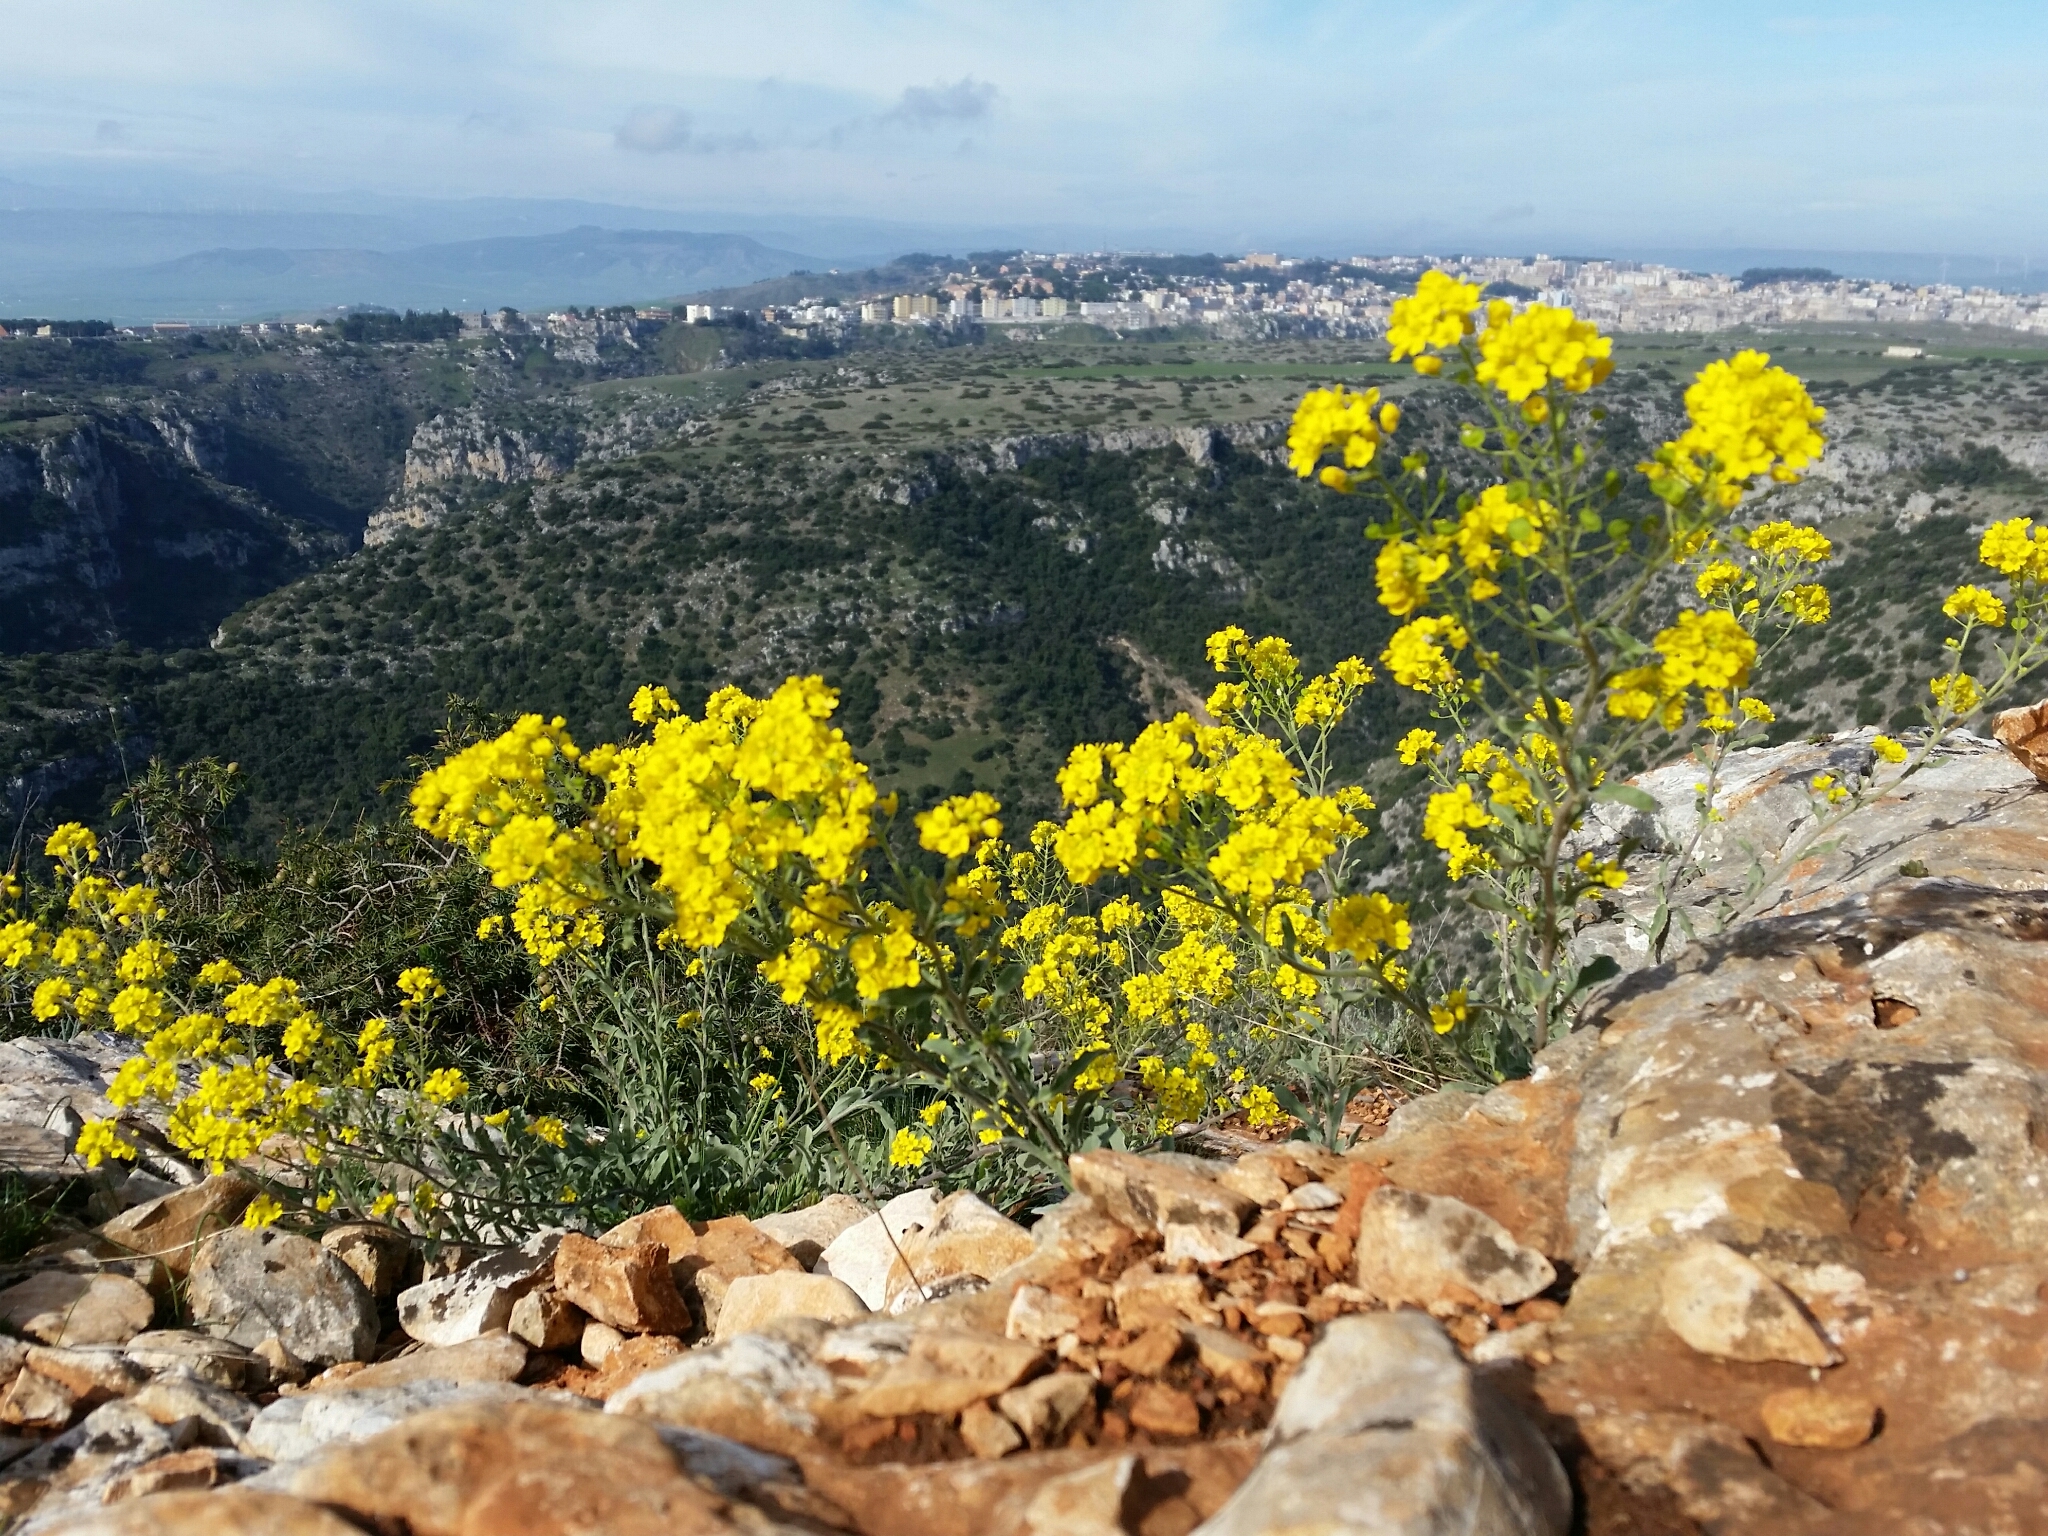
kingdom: Plantae
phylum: Tracheophyta
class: Magnoliopsida
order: Brassicales
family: Brassicaceae
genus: Aurinia
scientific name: Aurinia saxatilis
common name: Golden-tuft alyssum
